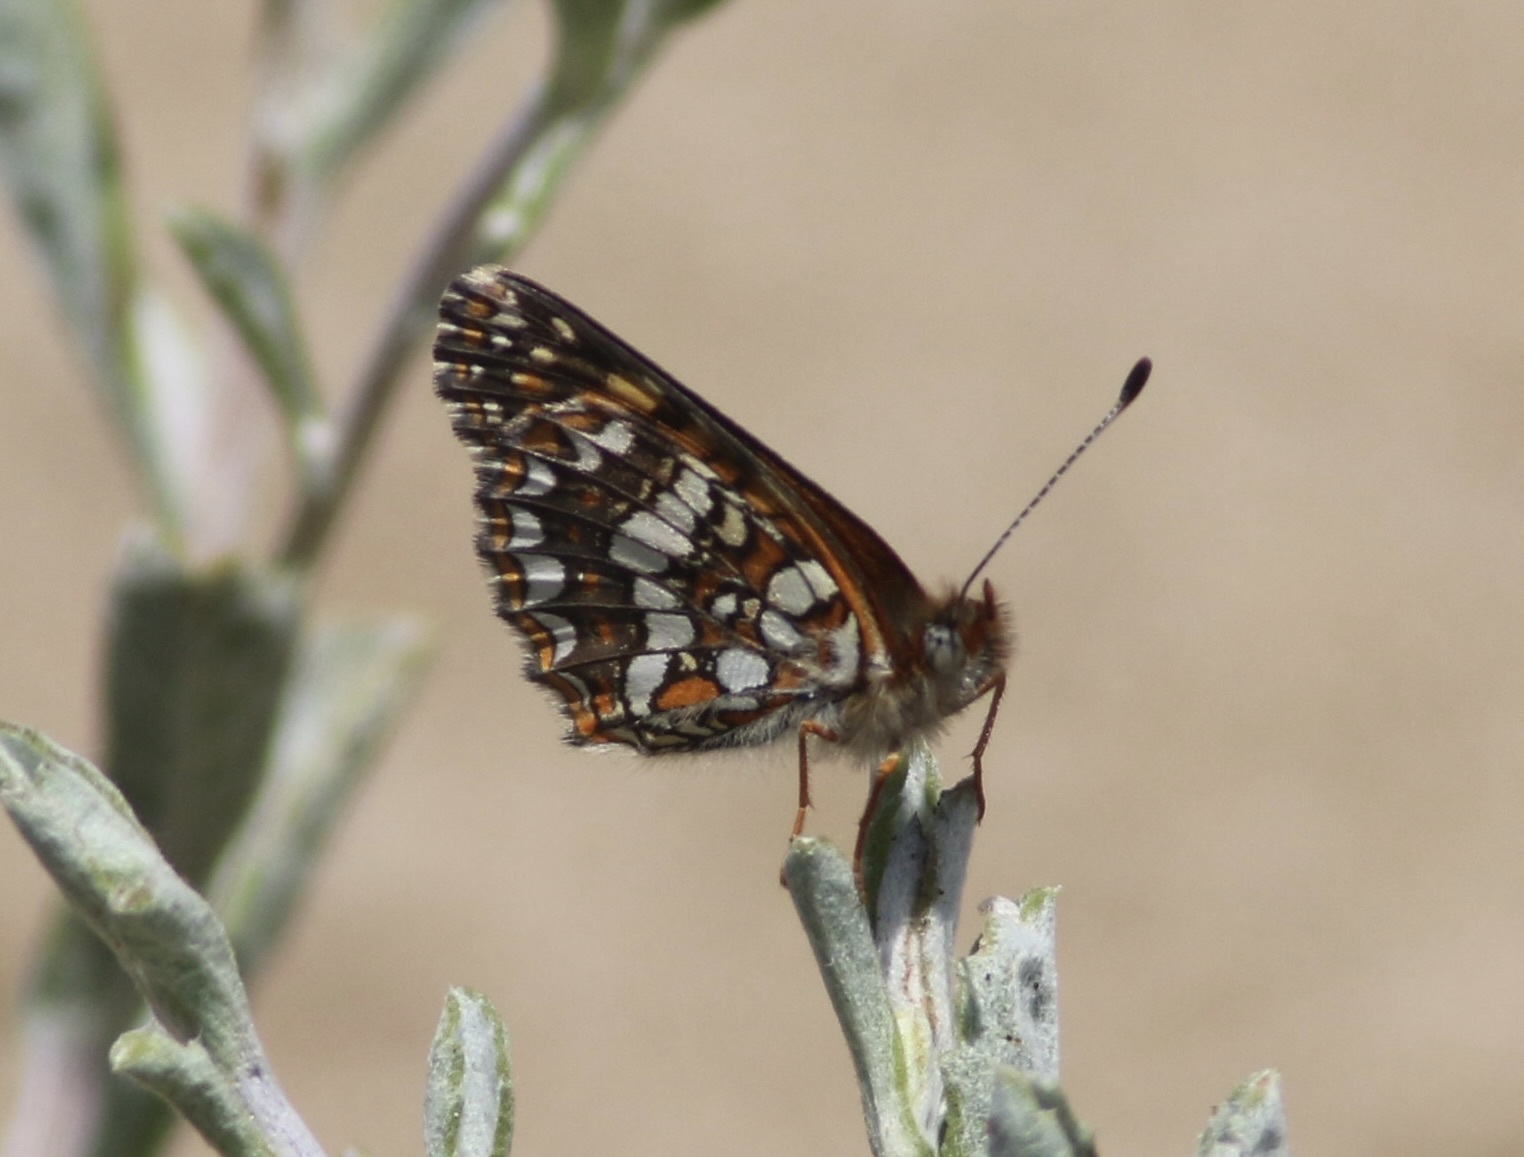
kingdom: Animalia
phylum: Arthropoda
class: Insecta
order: Lepidoptera
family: Nymphalidae
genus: Chlosyne
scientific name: Chlosyne gabbii
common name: Gabb's checkerspot
